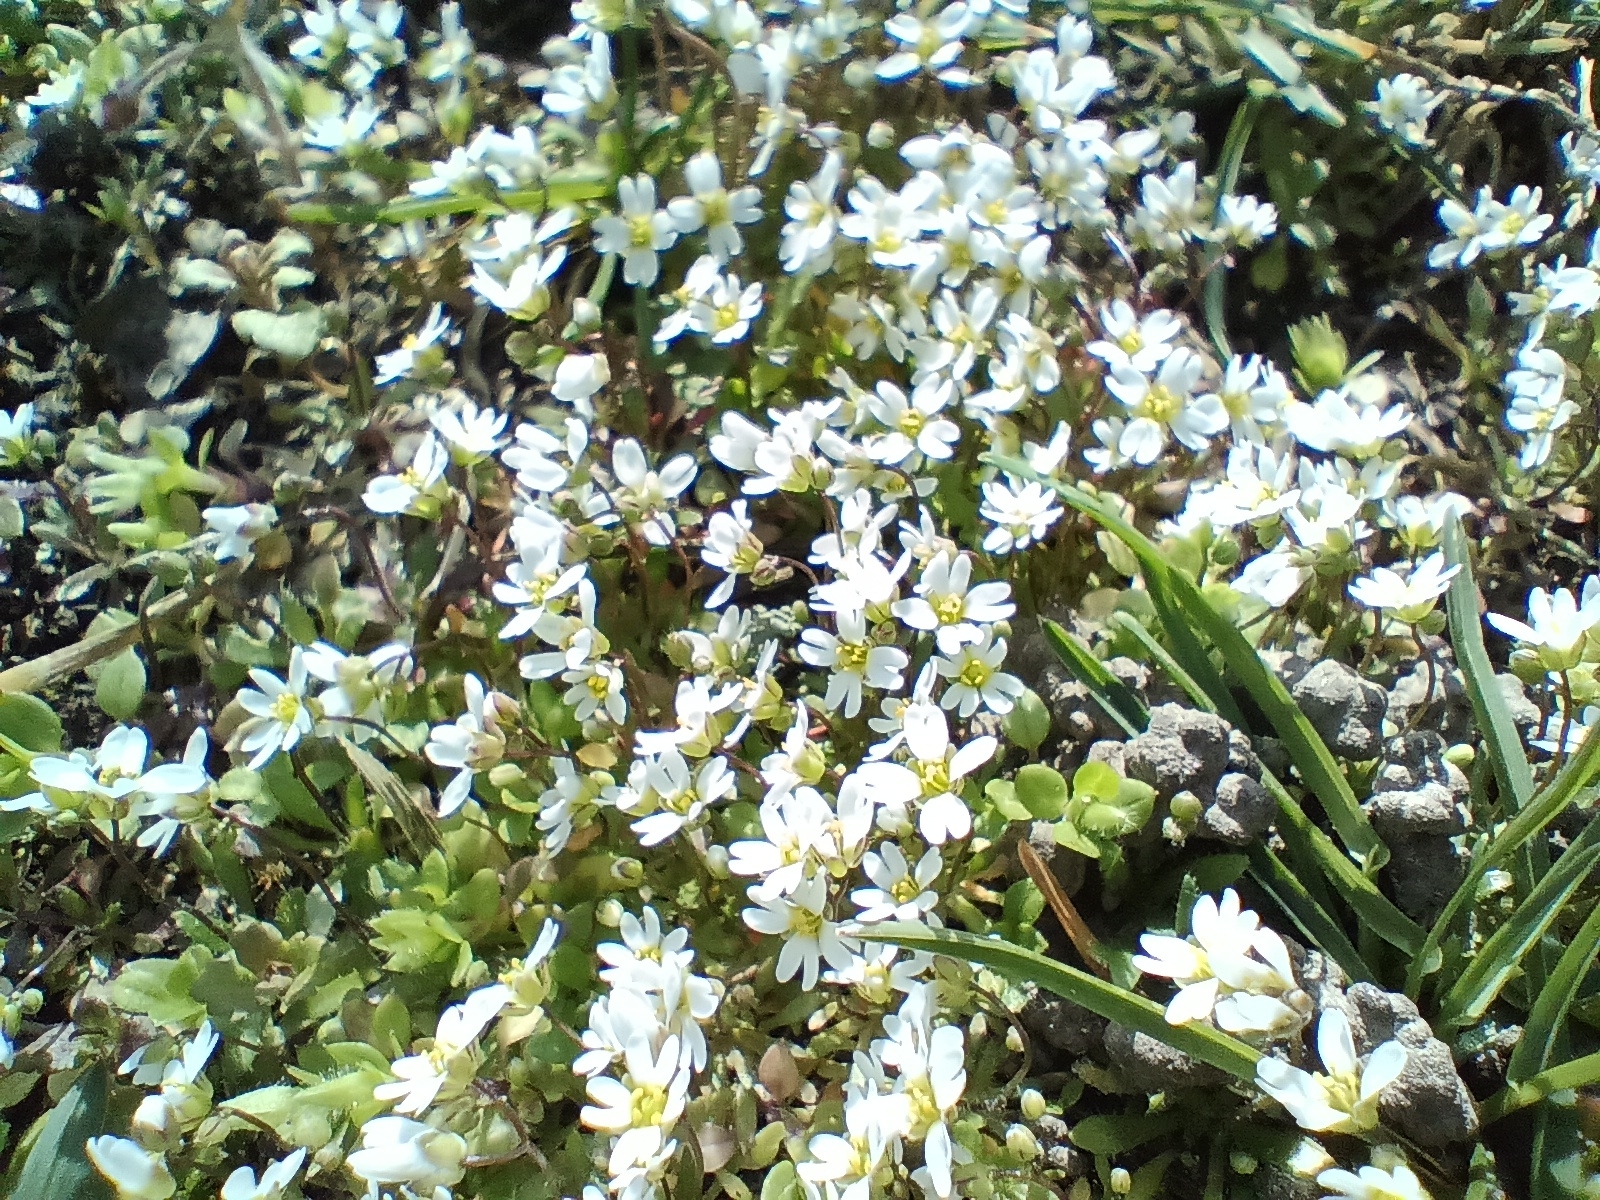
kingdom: Plantae
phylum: Tracheophyta
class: Magnoliopsida
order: Brassicales
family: Brassicaceae
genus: Draba
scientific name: Draba verna
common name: Spring draba
